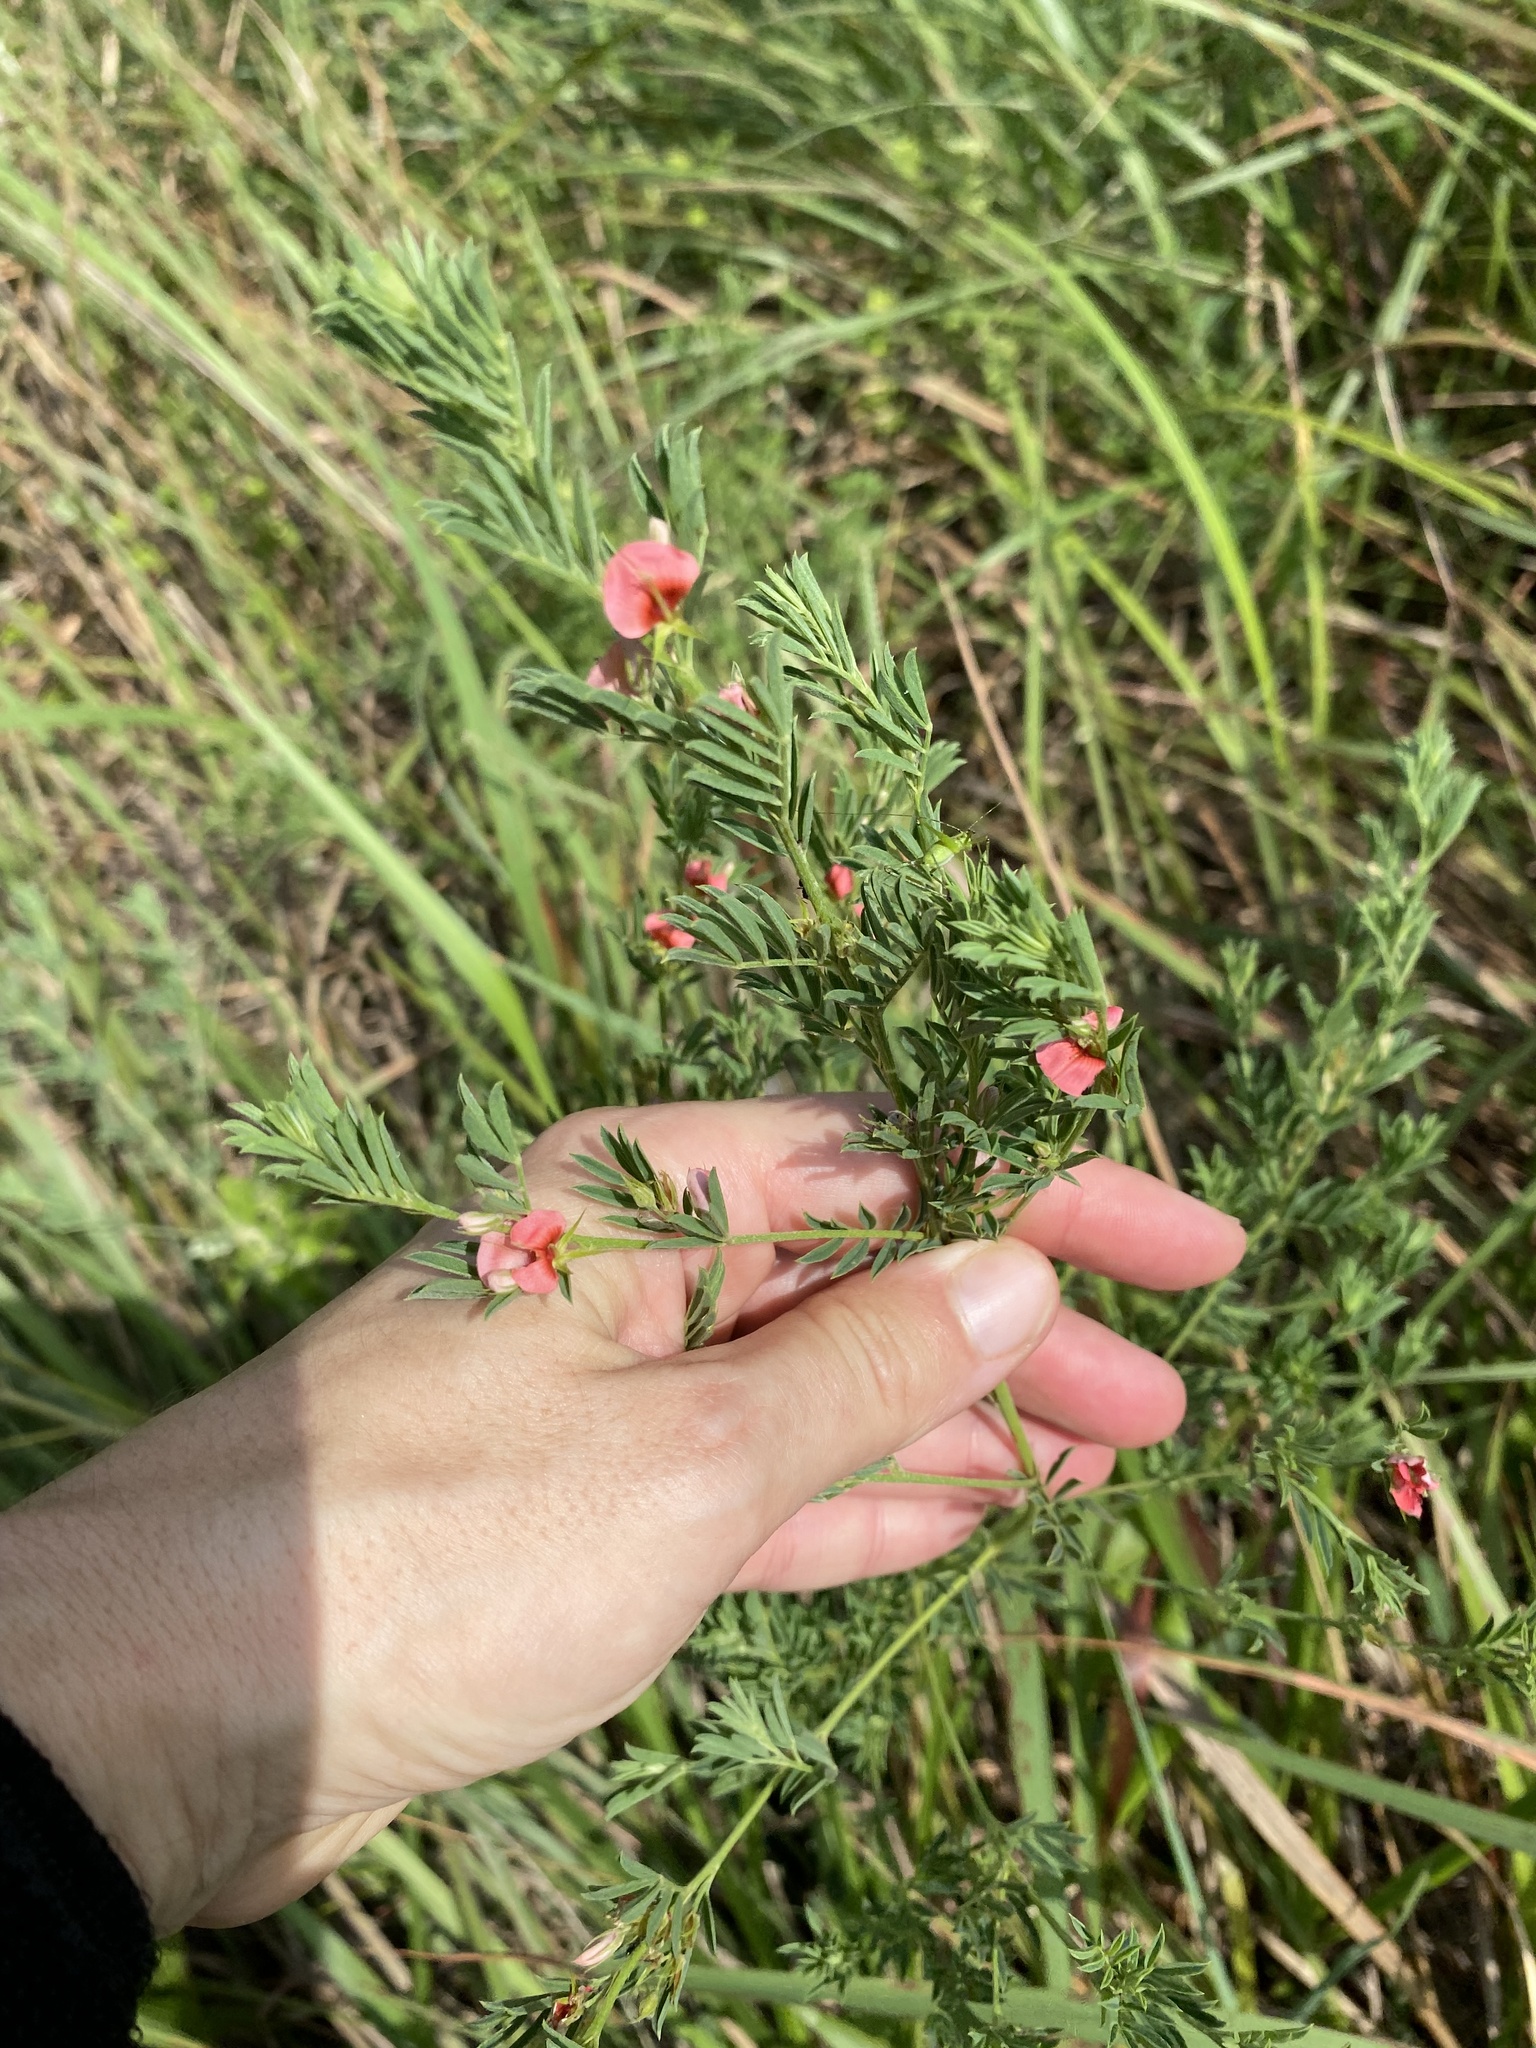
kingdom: Plantae
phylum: Tracheophyta
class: Magnoliopsida
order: Fabales
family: Fabaceae
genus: Indigofera
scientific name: Indigofera hilaris
